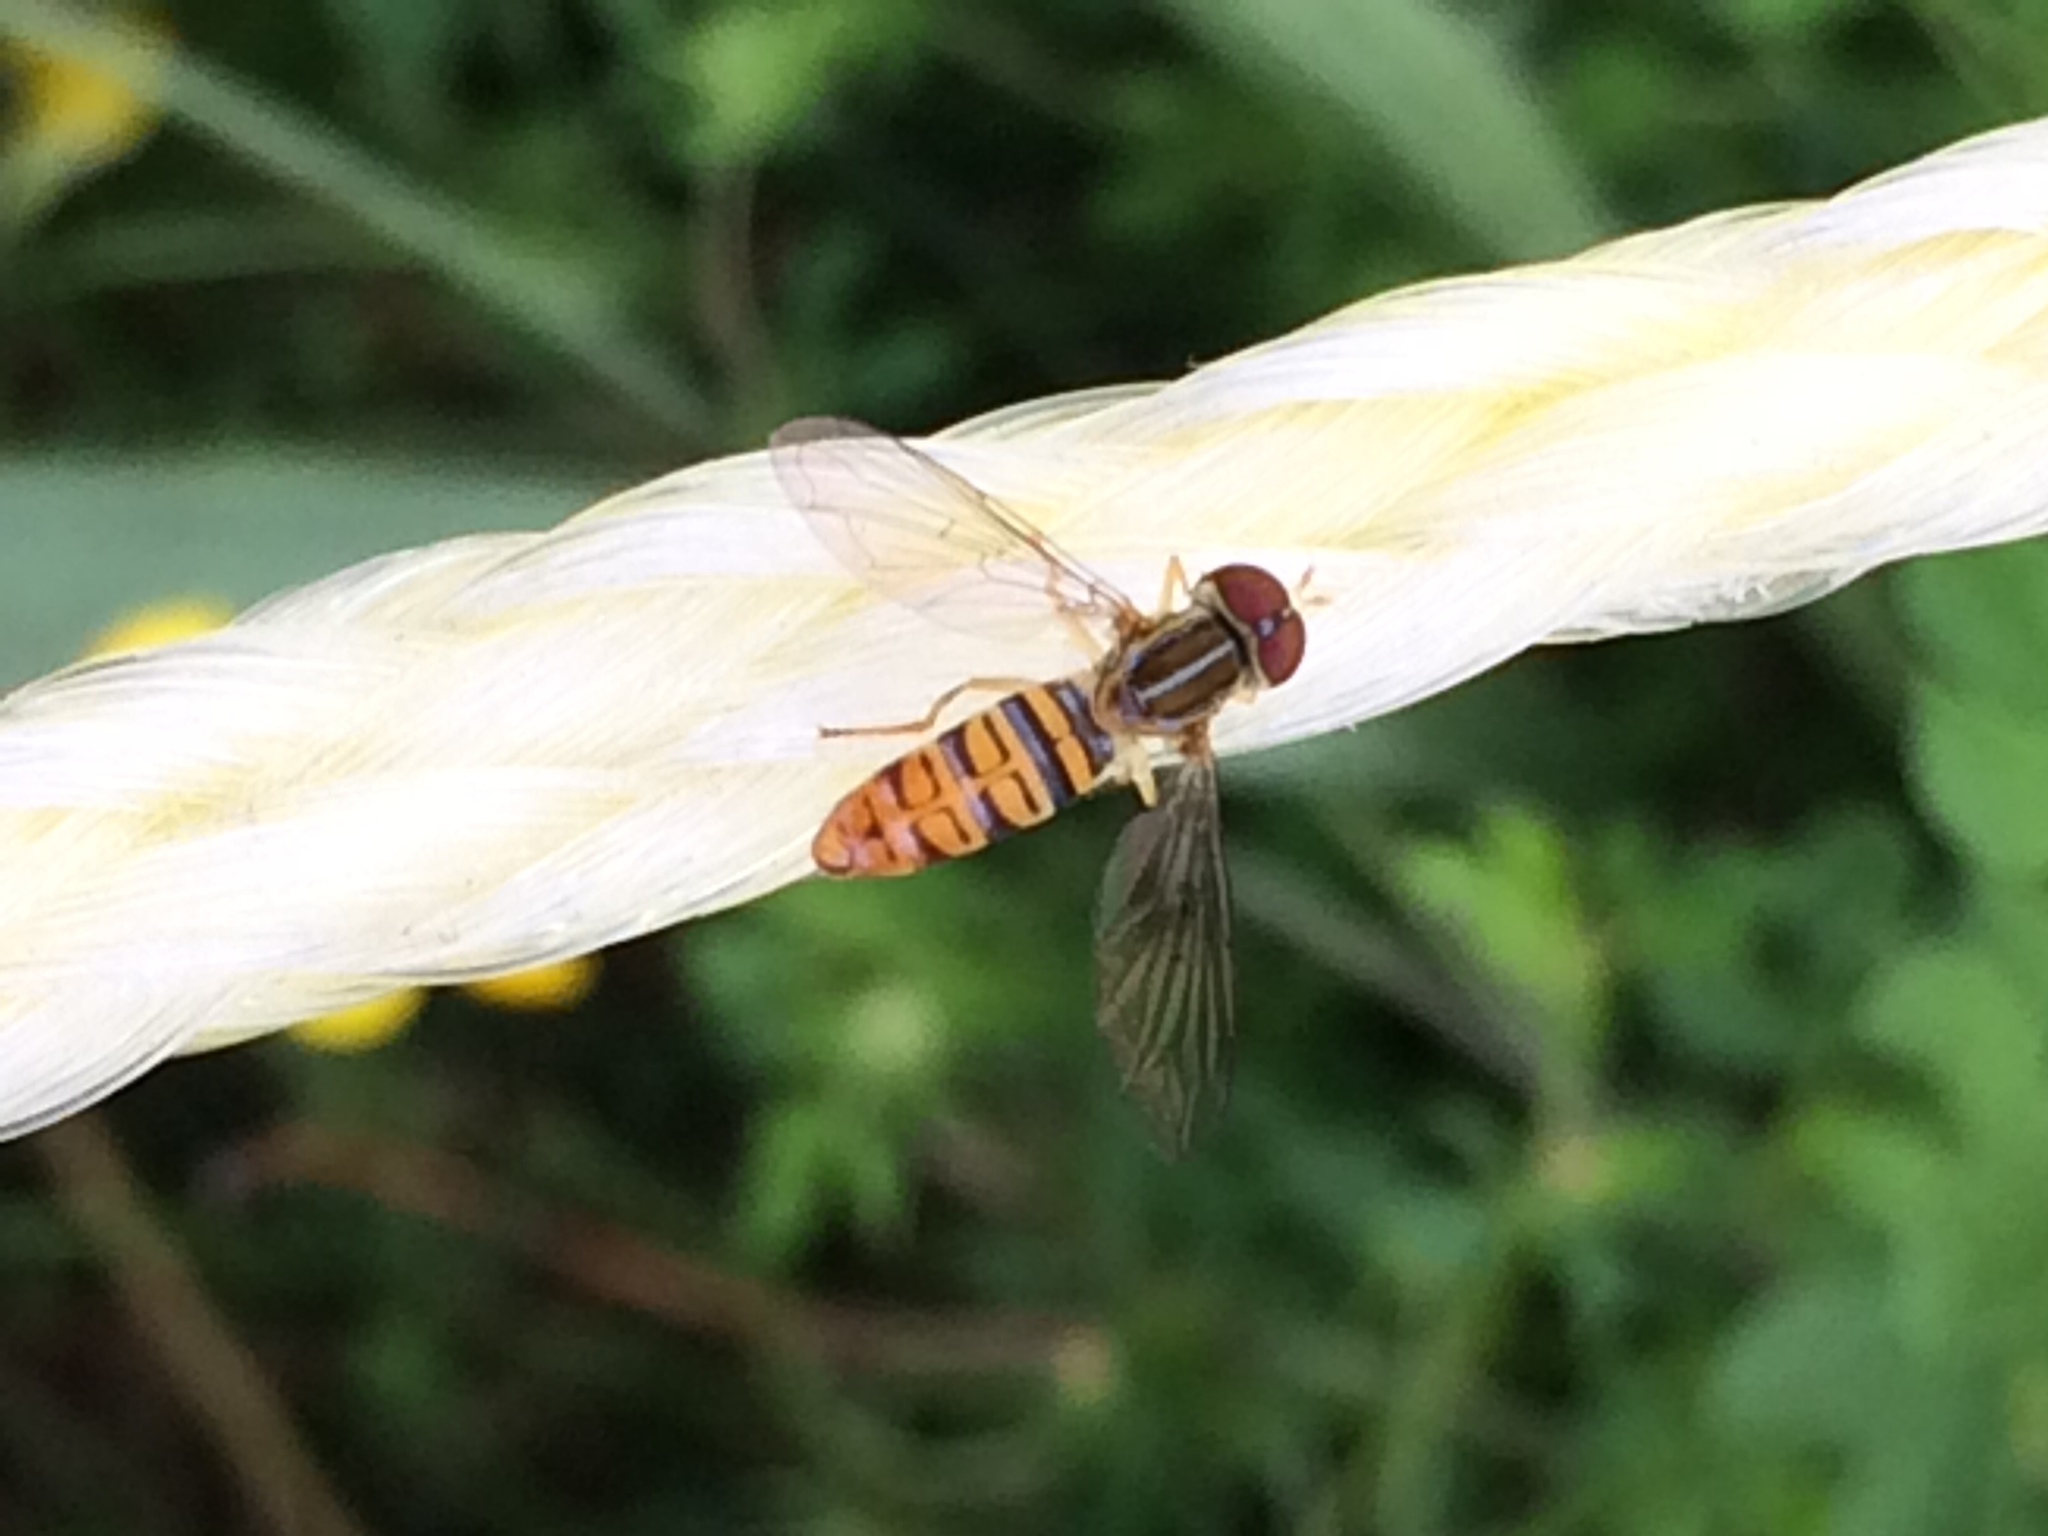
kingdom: Animalia
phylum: Arthropoda
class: Insecta
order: Diptera
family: Syrphidae
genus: Toxomerus
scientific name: Toxomerus politus
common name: Maize calligrapher
